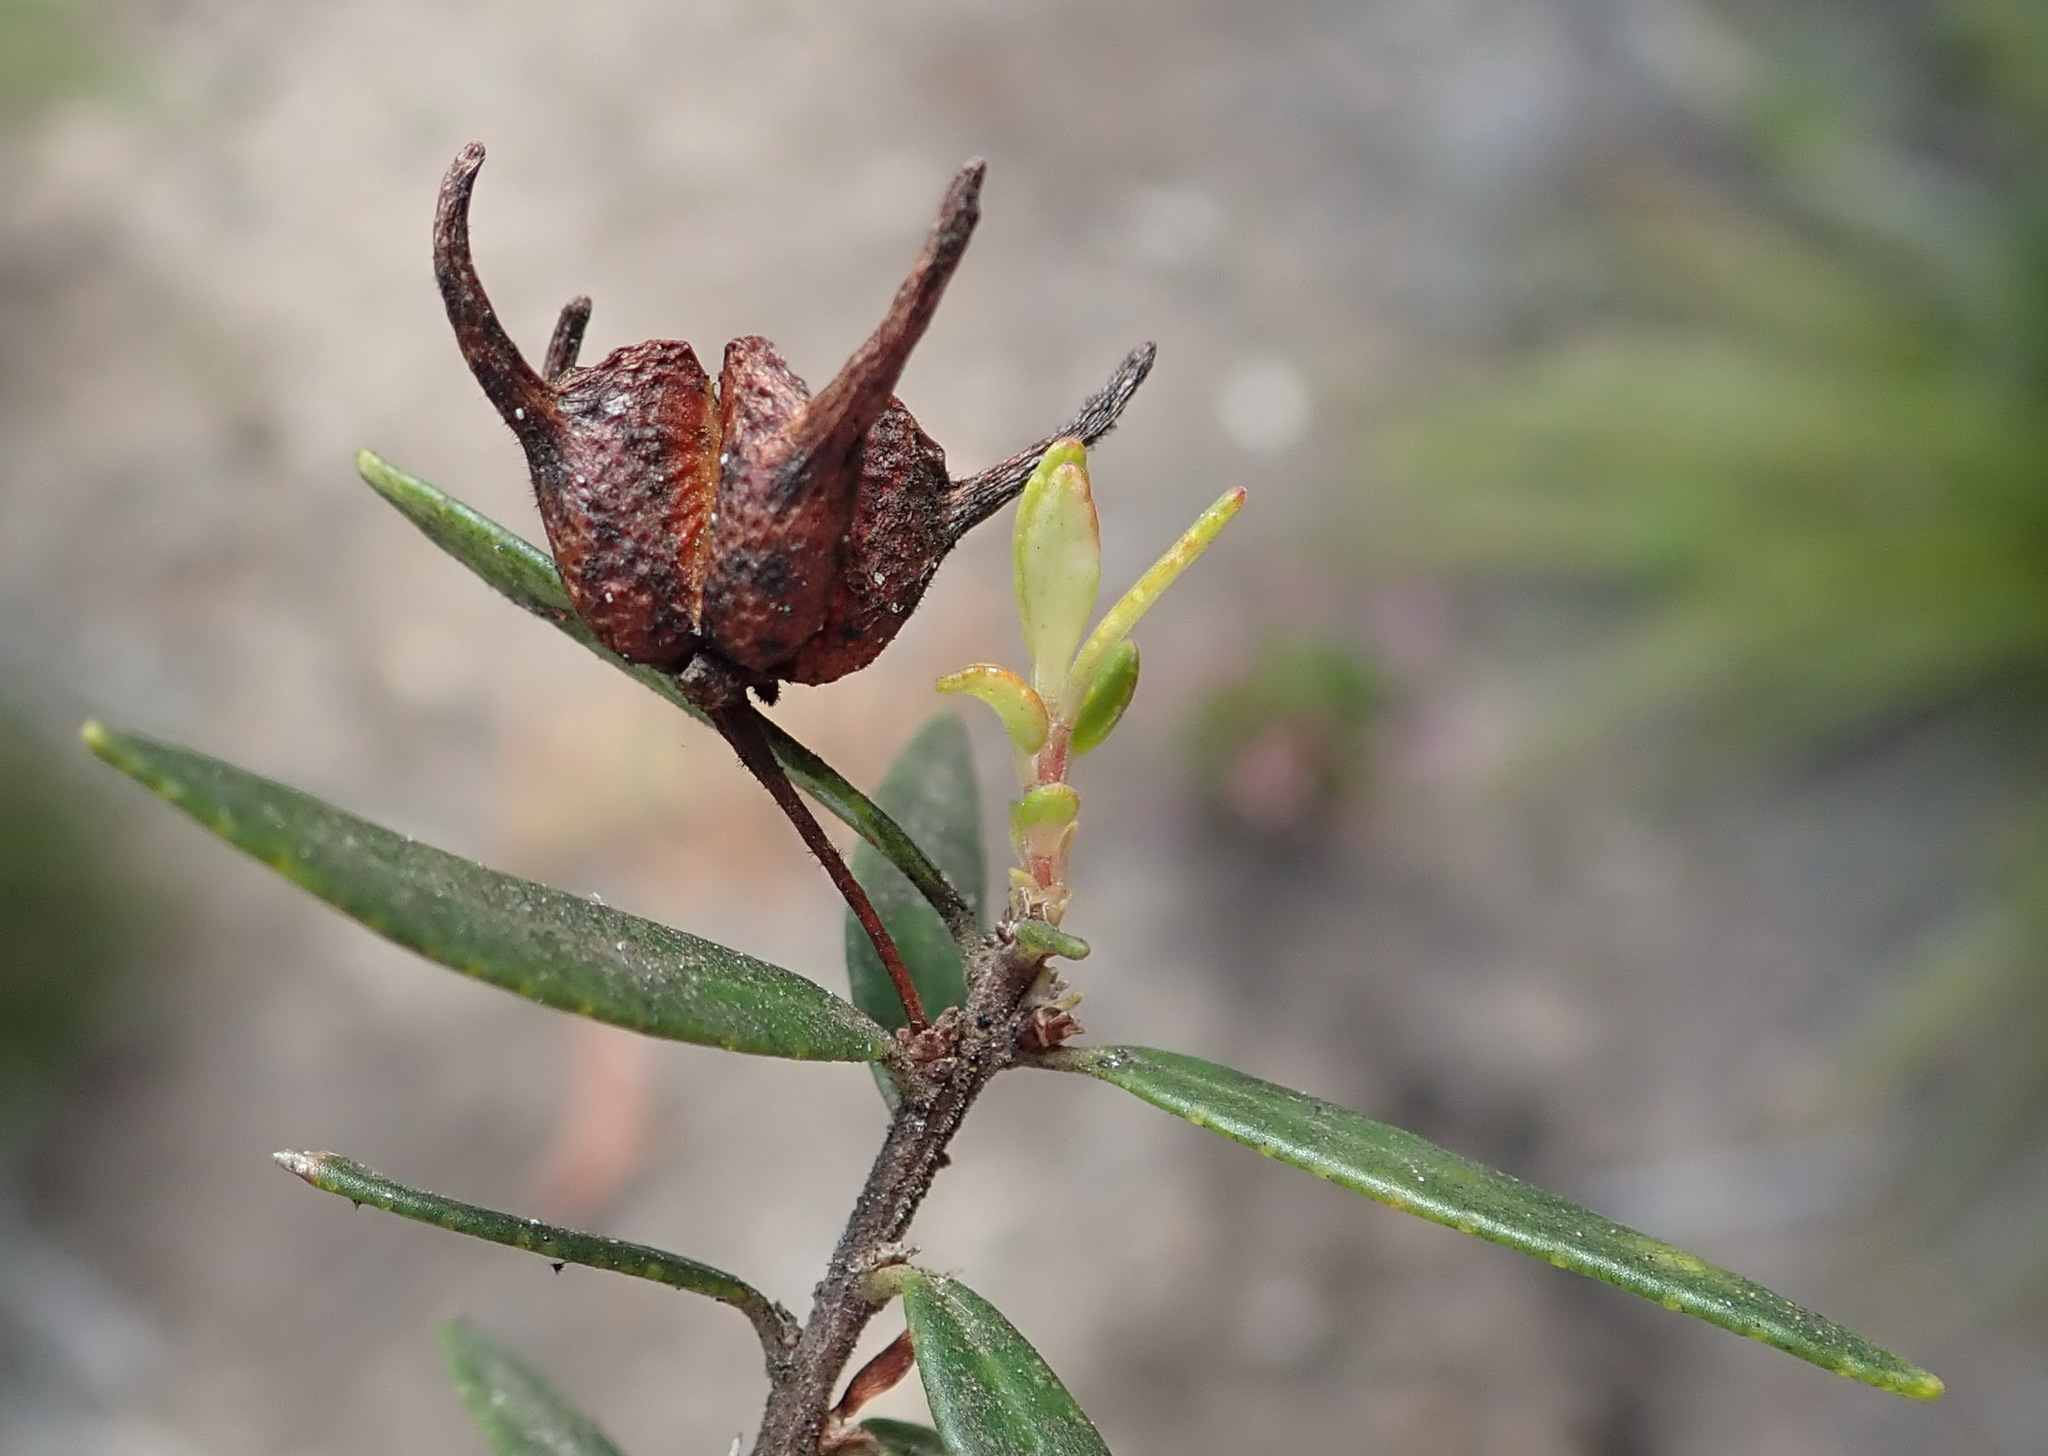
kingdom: Plantae
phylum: Tracheophyta
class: Magnoliopsida
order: Sapindales
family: Rutaceae
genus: Agathosma
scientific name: Agathosma ovata
